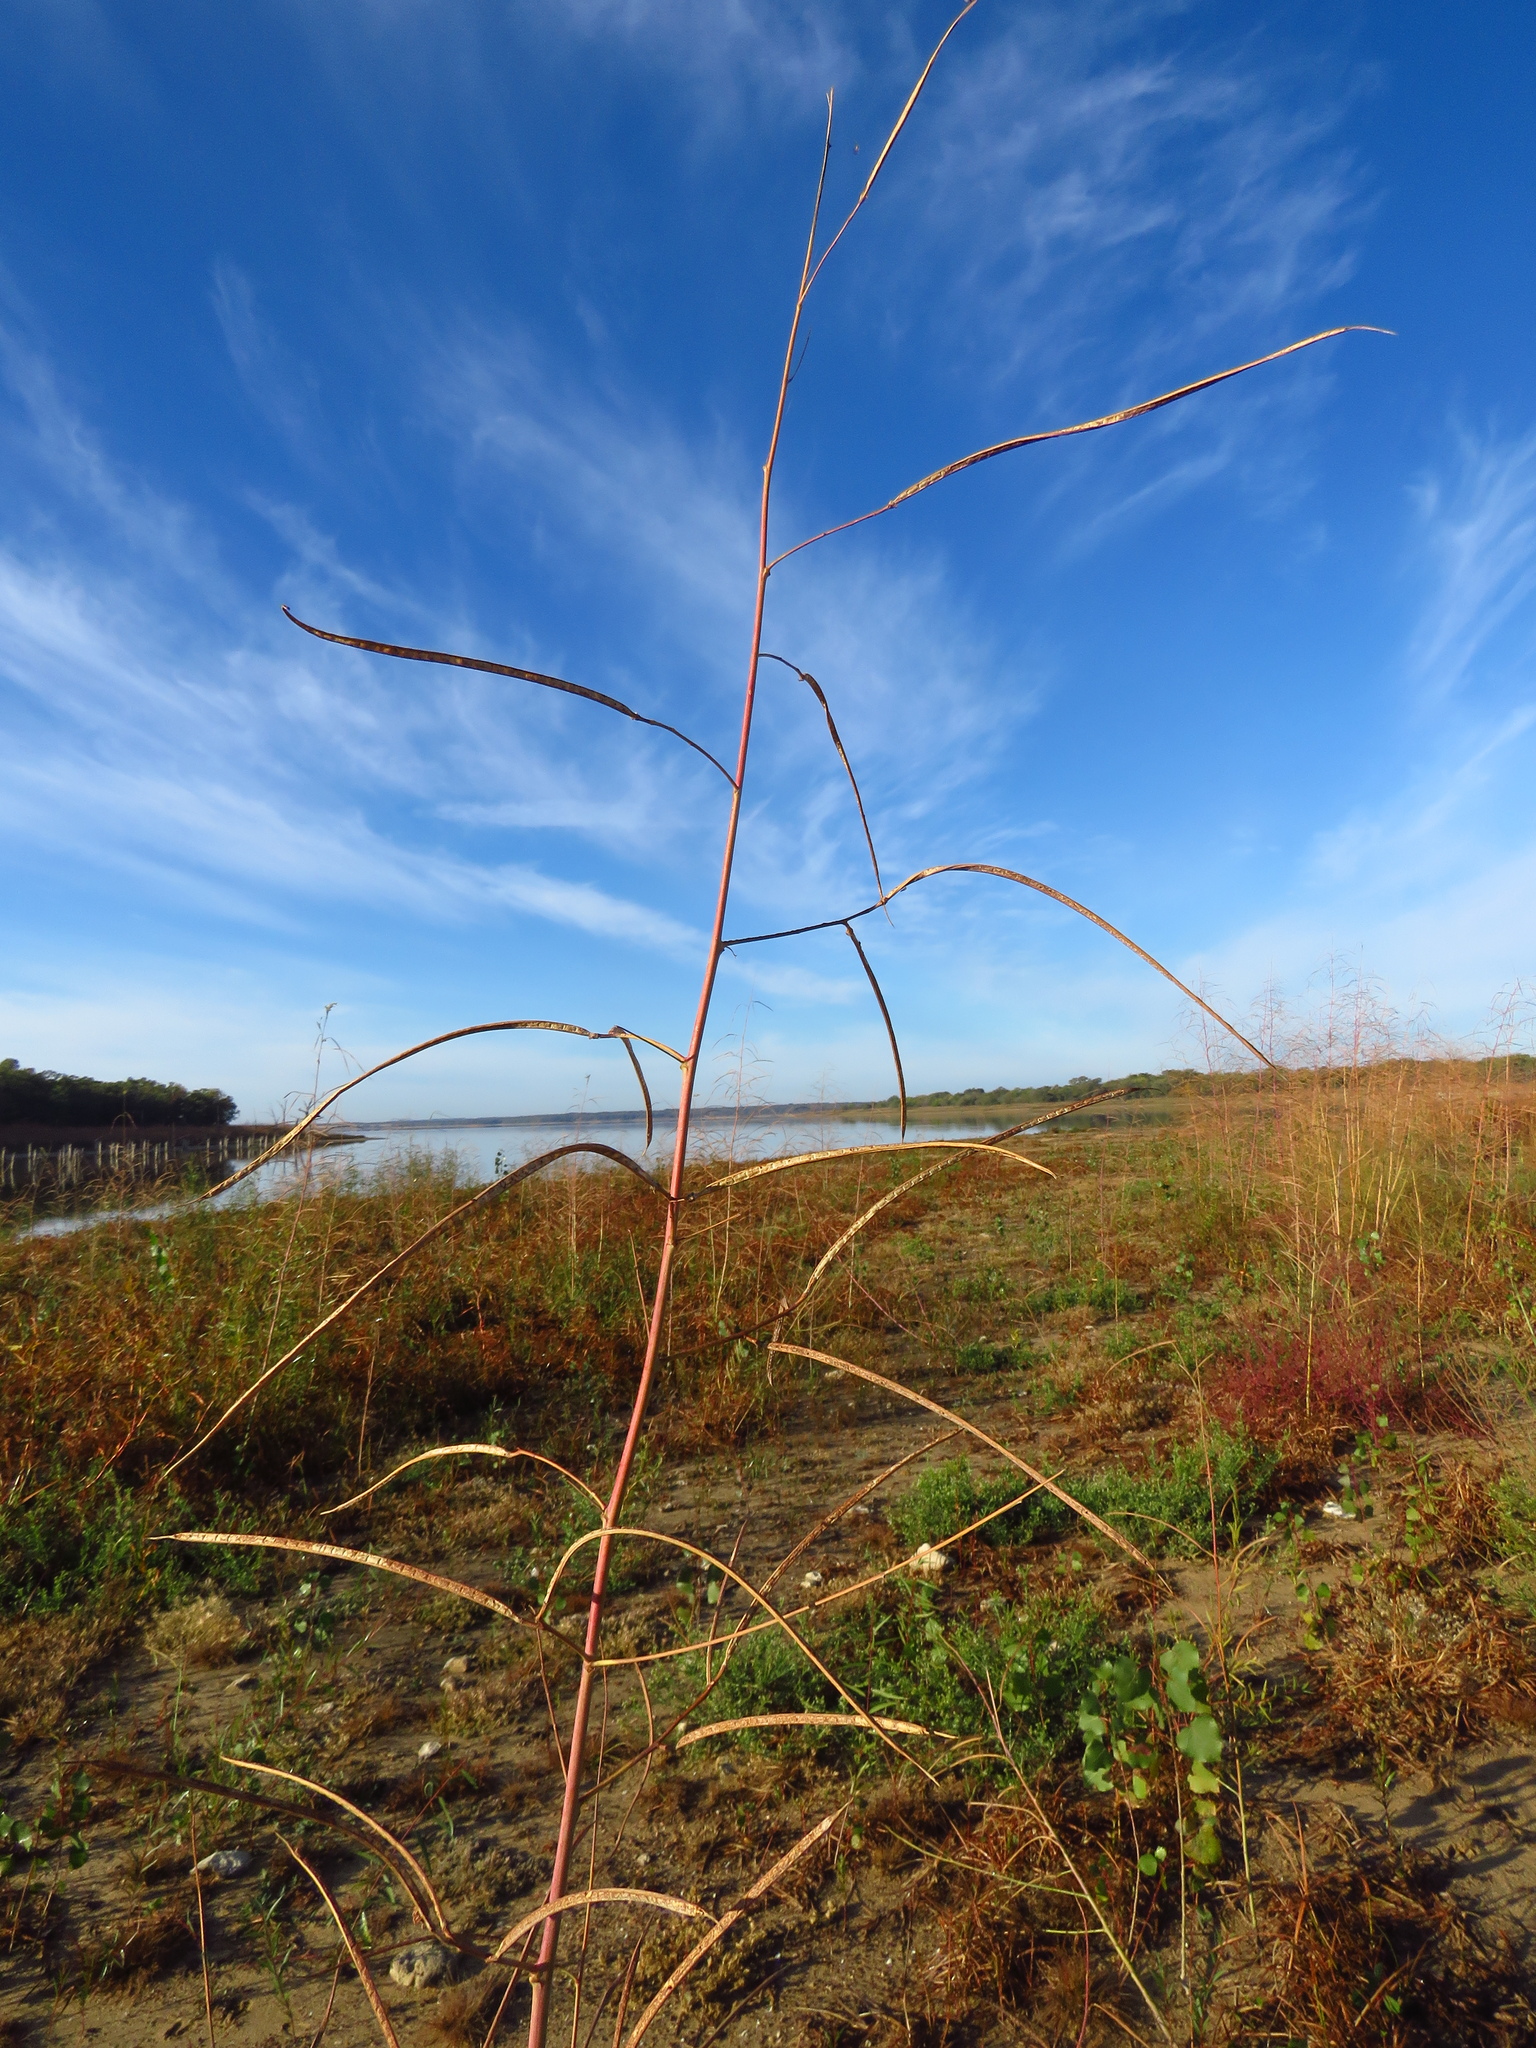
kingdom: Plantae
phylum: Tracheophyta
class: Magnoliopsida
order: Fabales
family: Fabaceae
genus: Sesbania
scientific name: Sesbania herbacea
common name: Bigpod sesbania
